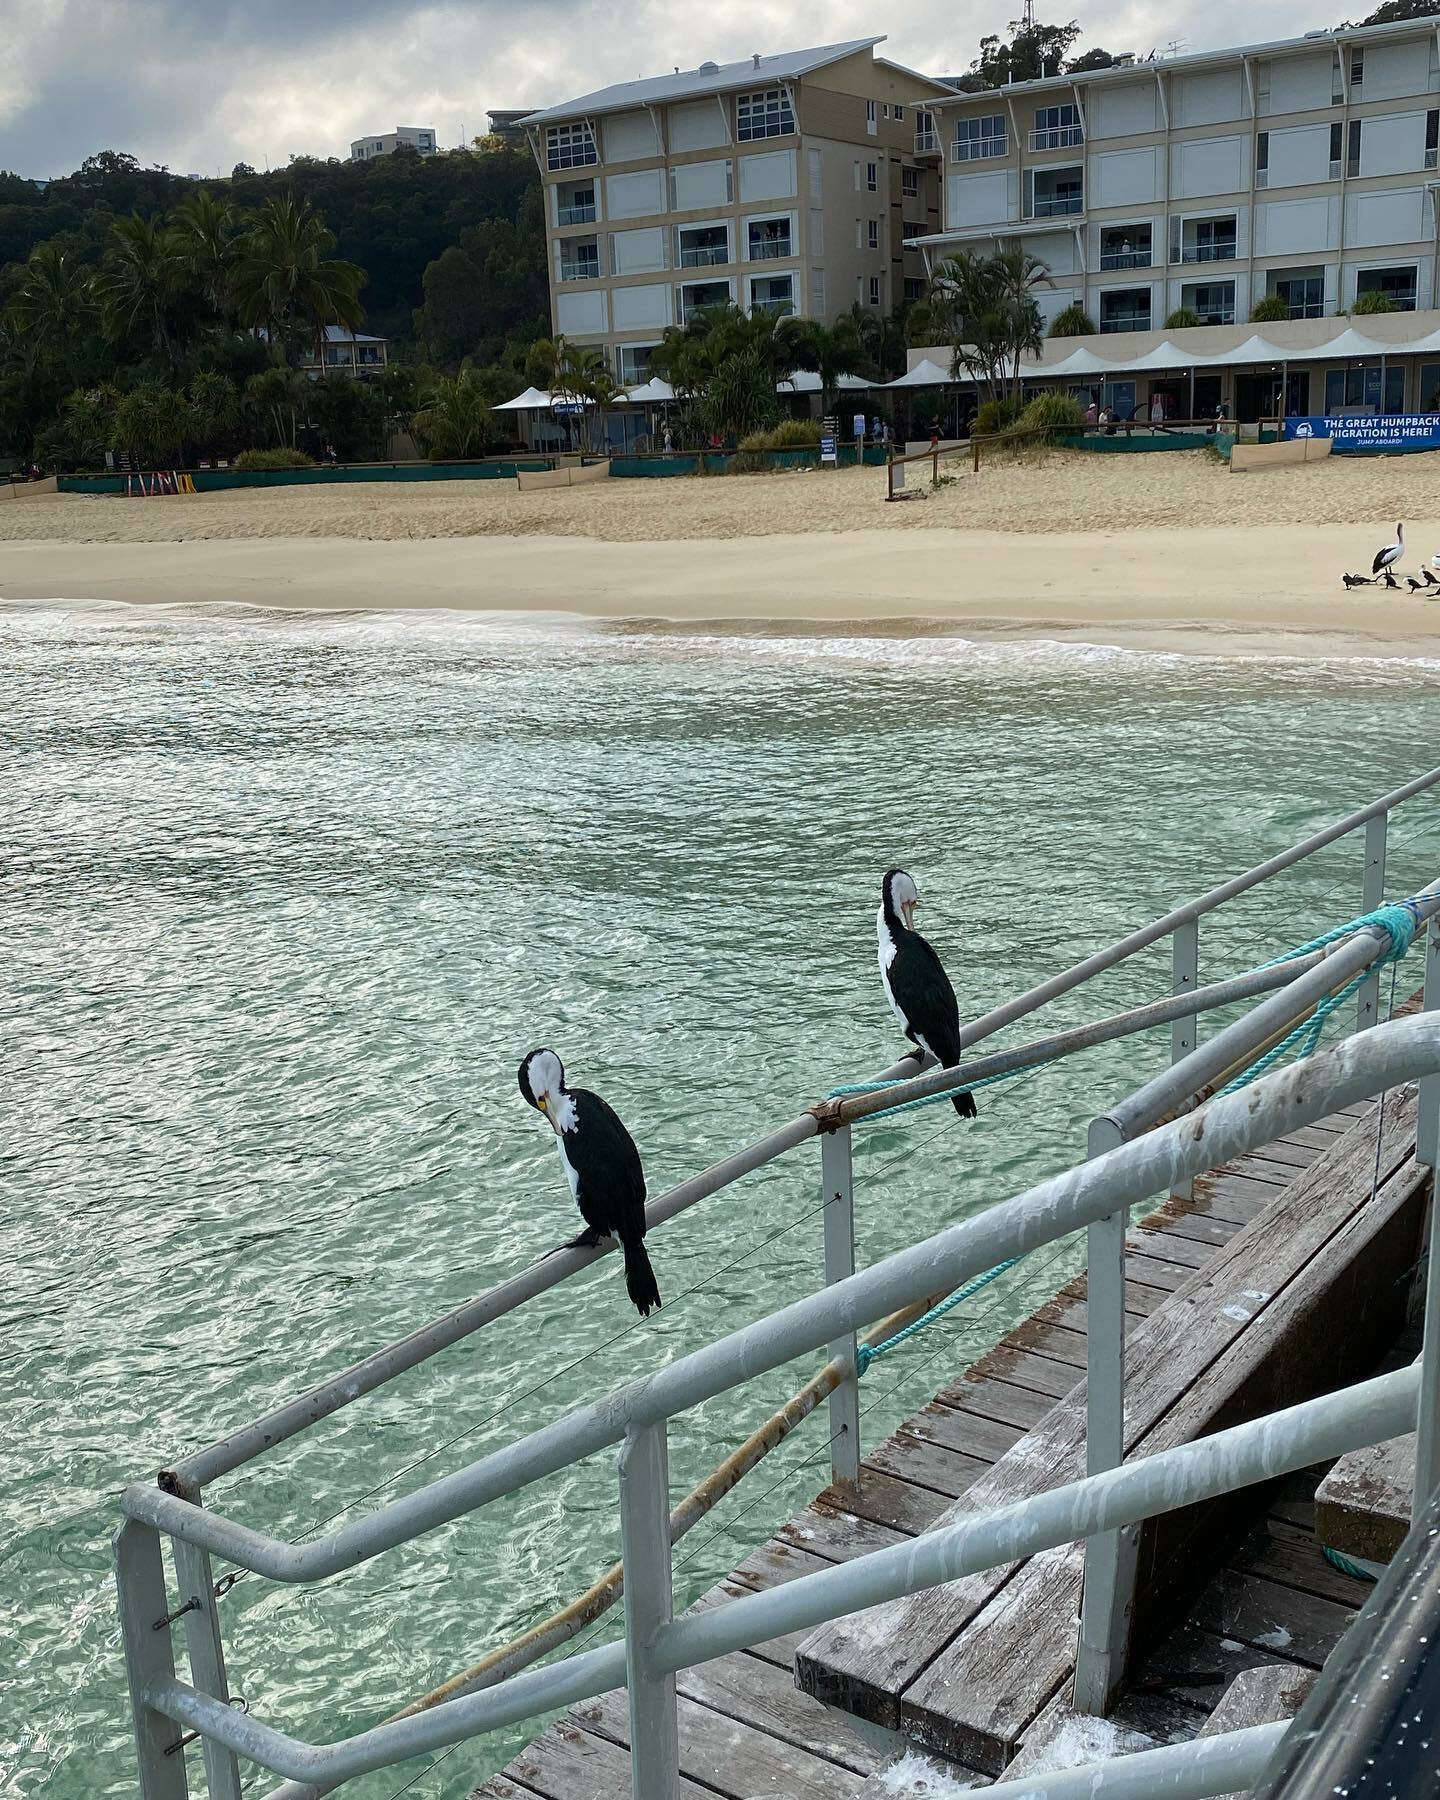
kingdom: Animalia
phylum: Chordata
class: Aves
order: Suliformes
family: Phalacrocoracidae
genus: Phalacrocorax
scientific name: Phalacrocorax varius
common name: Pied cormorant
